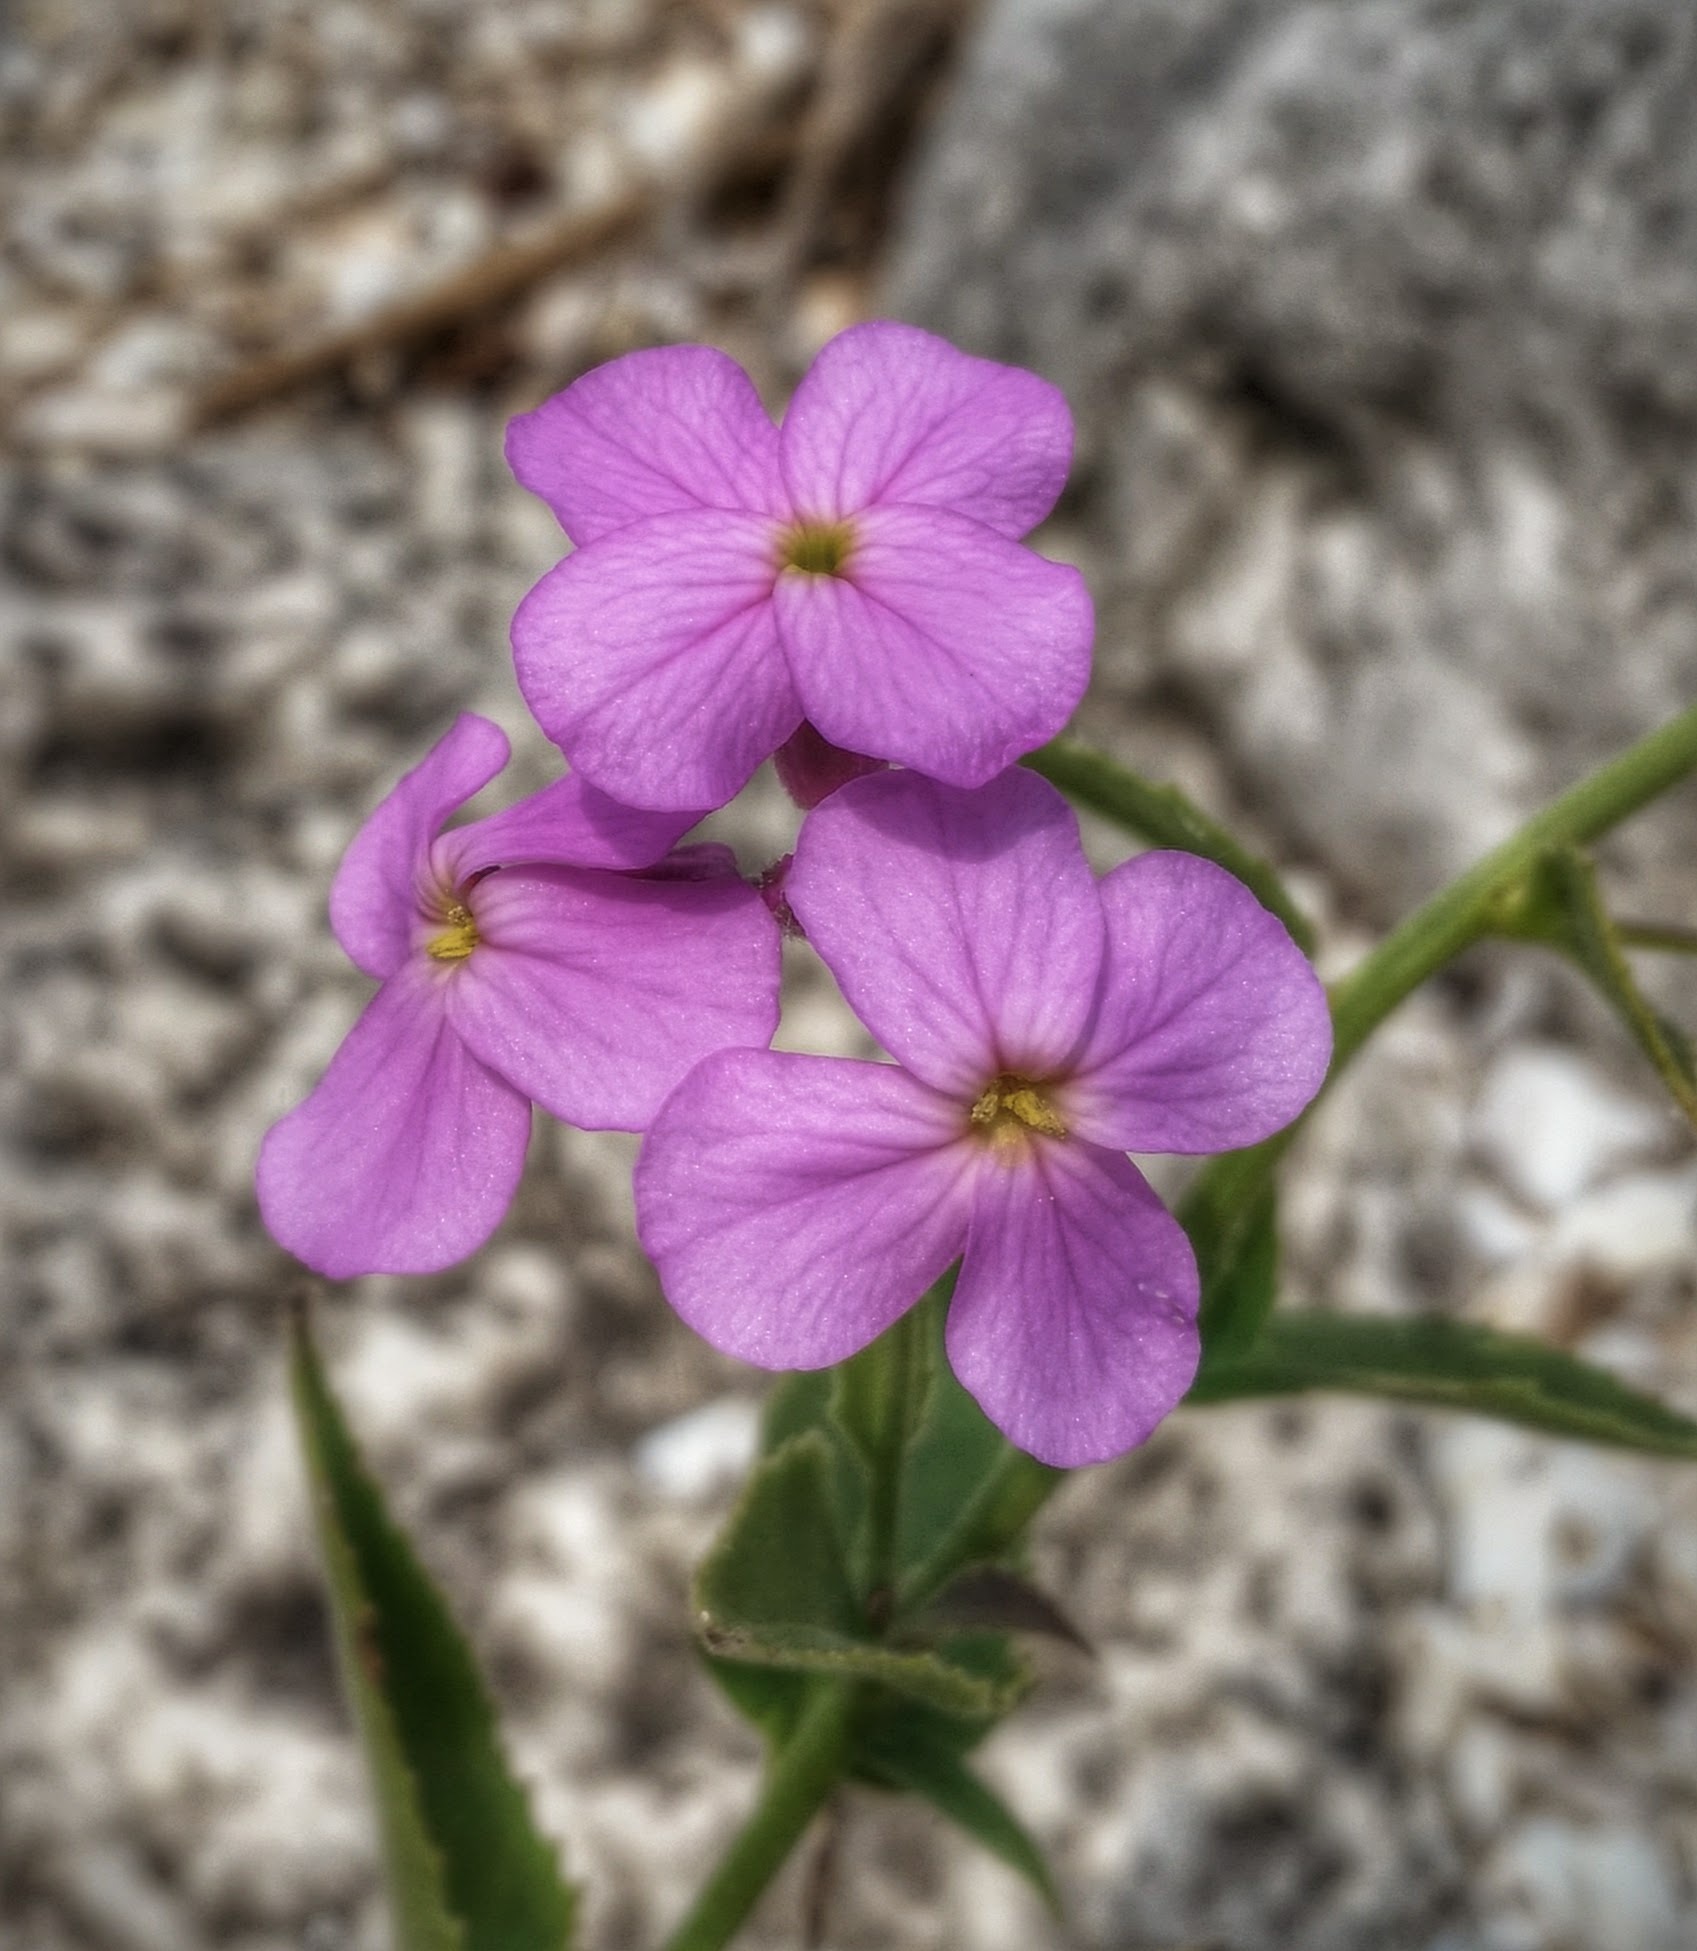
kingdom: Plantae
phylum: Tracheophyta
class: Magnoliopsida
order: Brassicales
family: Brassicaceae
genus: Hesperis
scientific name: Hesperis matronalis
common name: Dame's-violet
